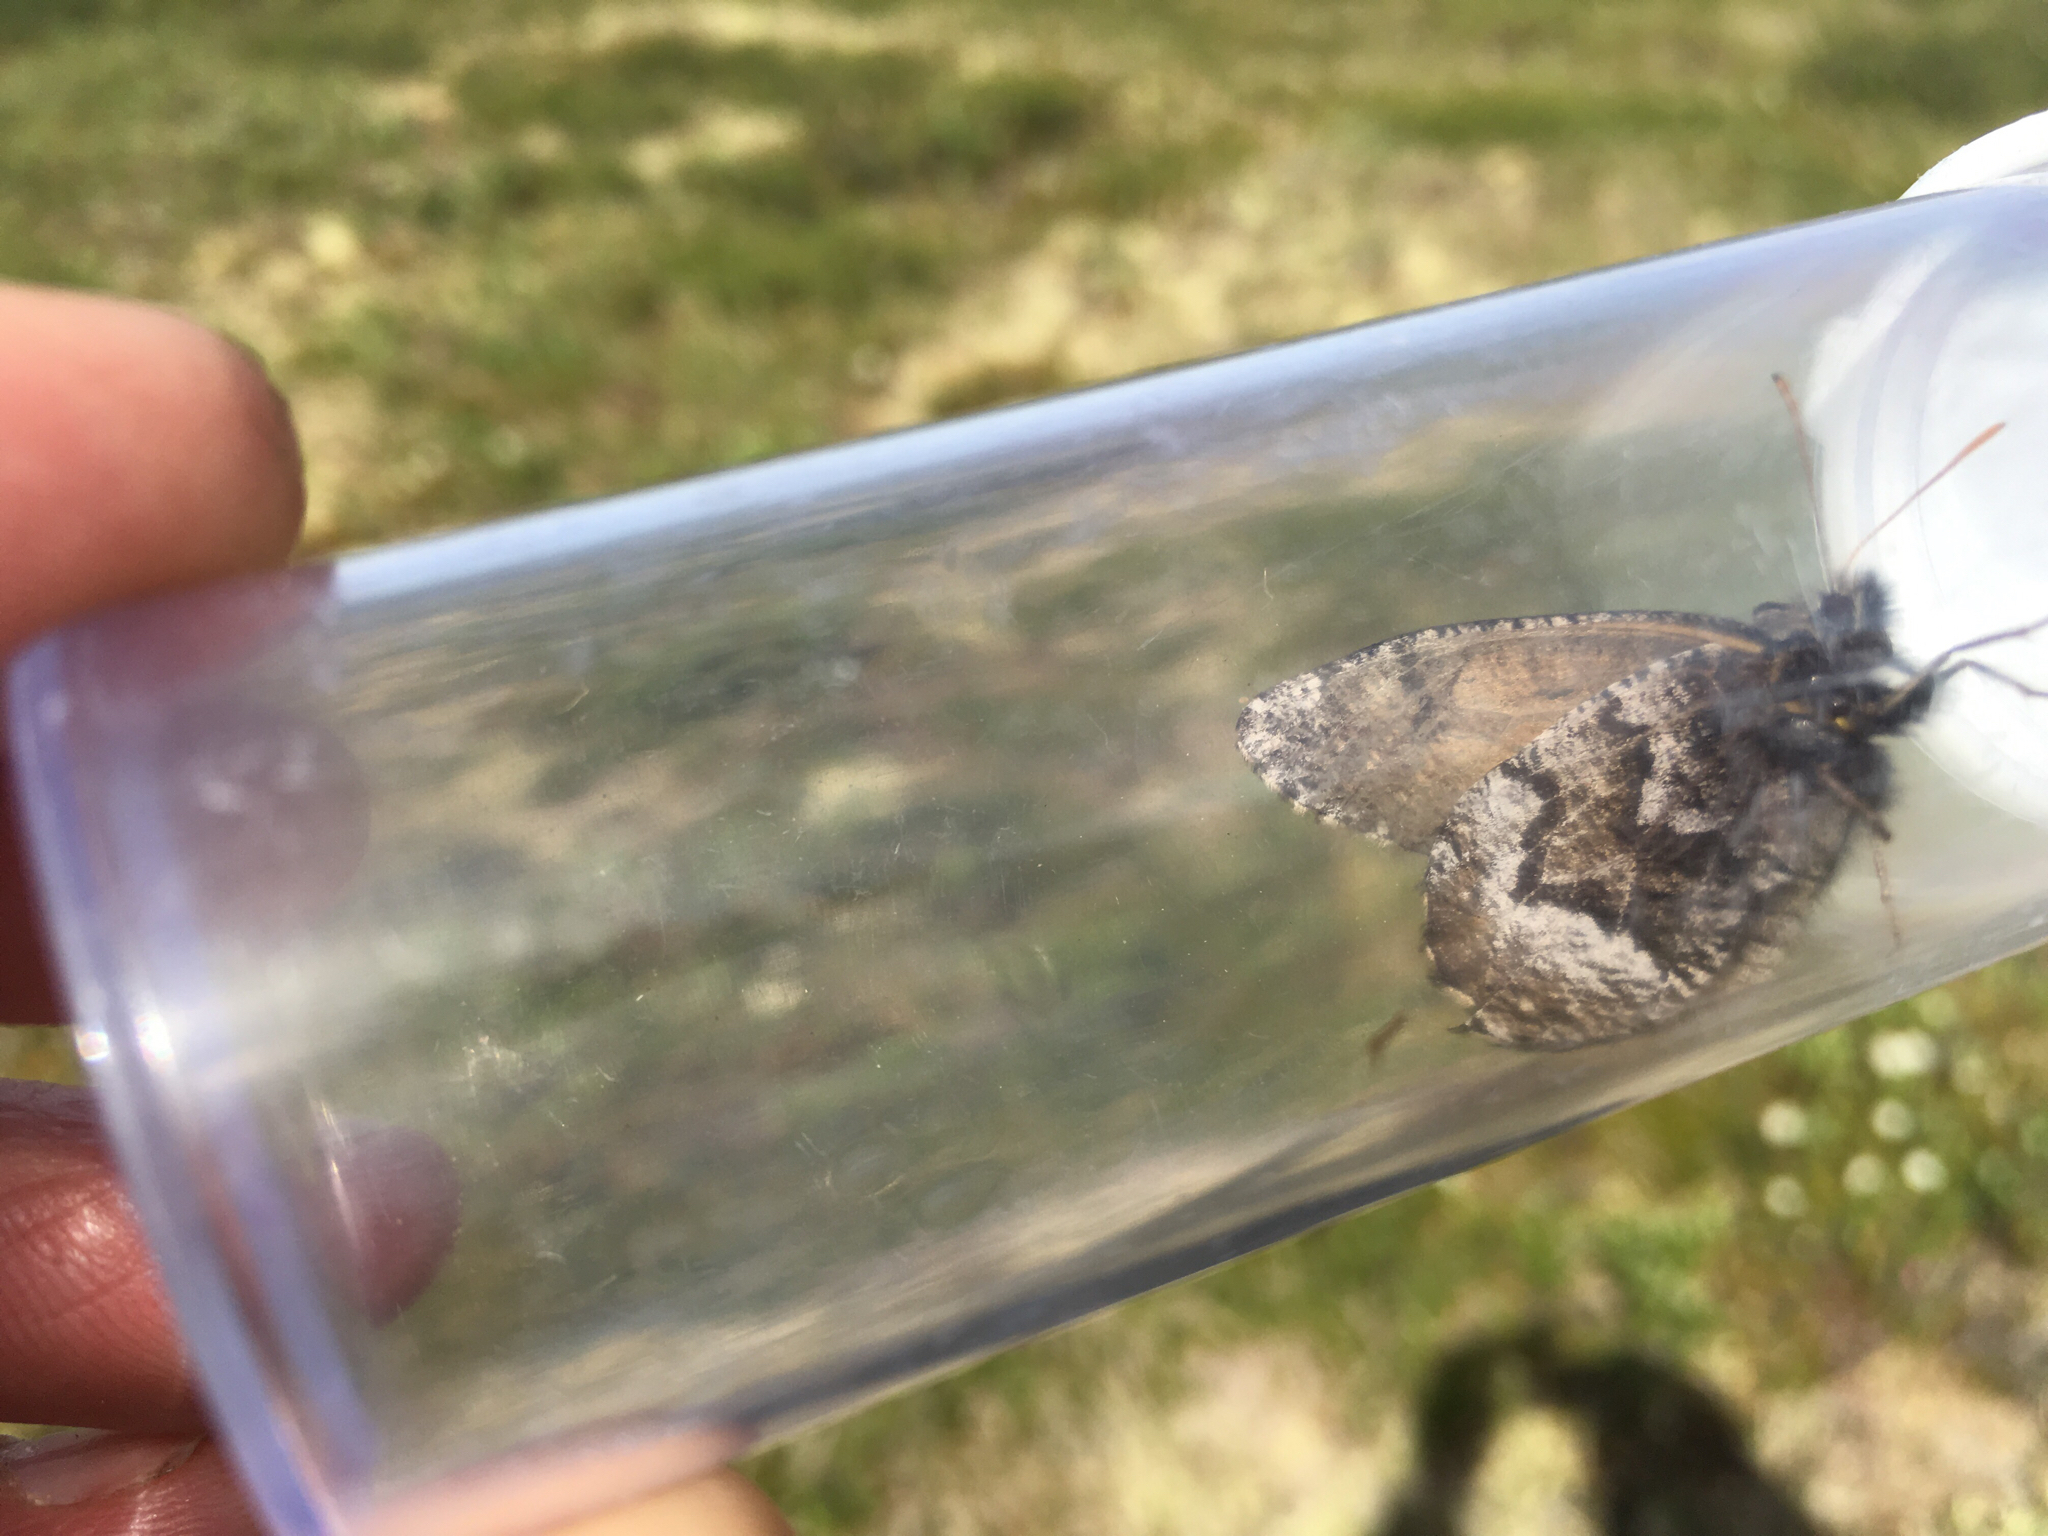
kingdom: Animalia
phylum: Arthropoda
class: Insecta
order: Lepidoptera
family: Nymphalidae
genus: Oeneis
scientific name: Oeneis bore
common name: Arctic grayling
